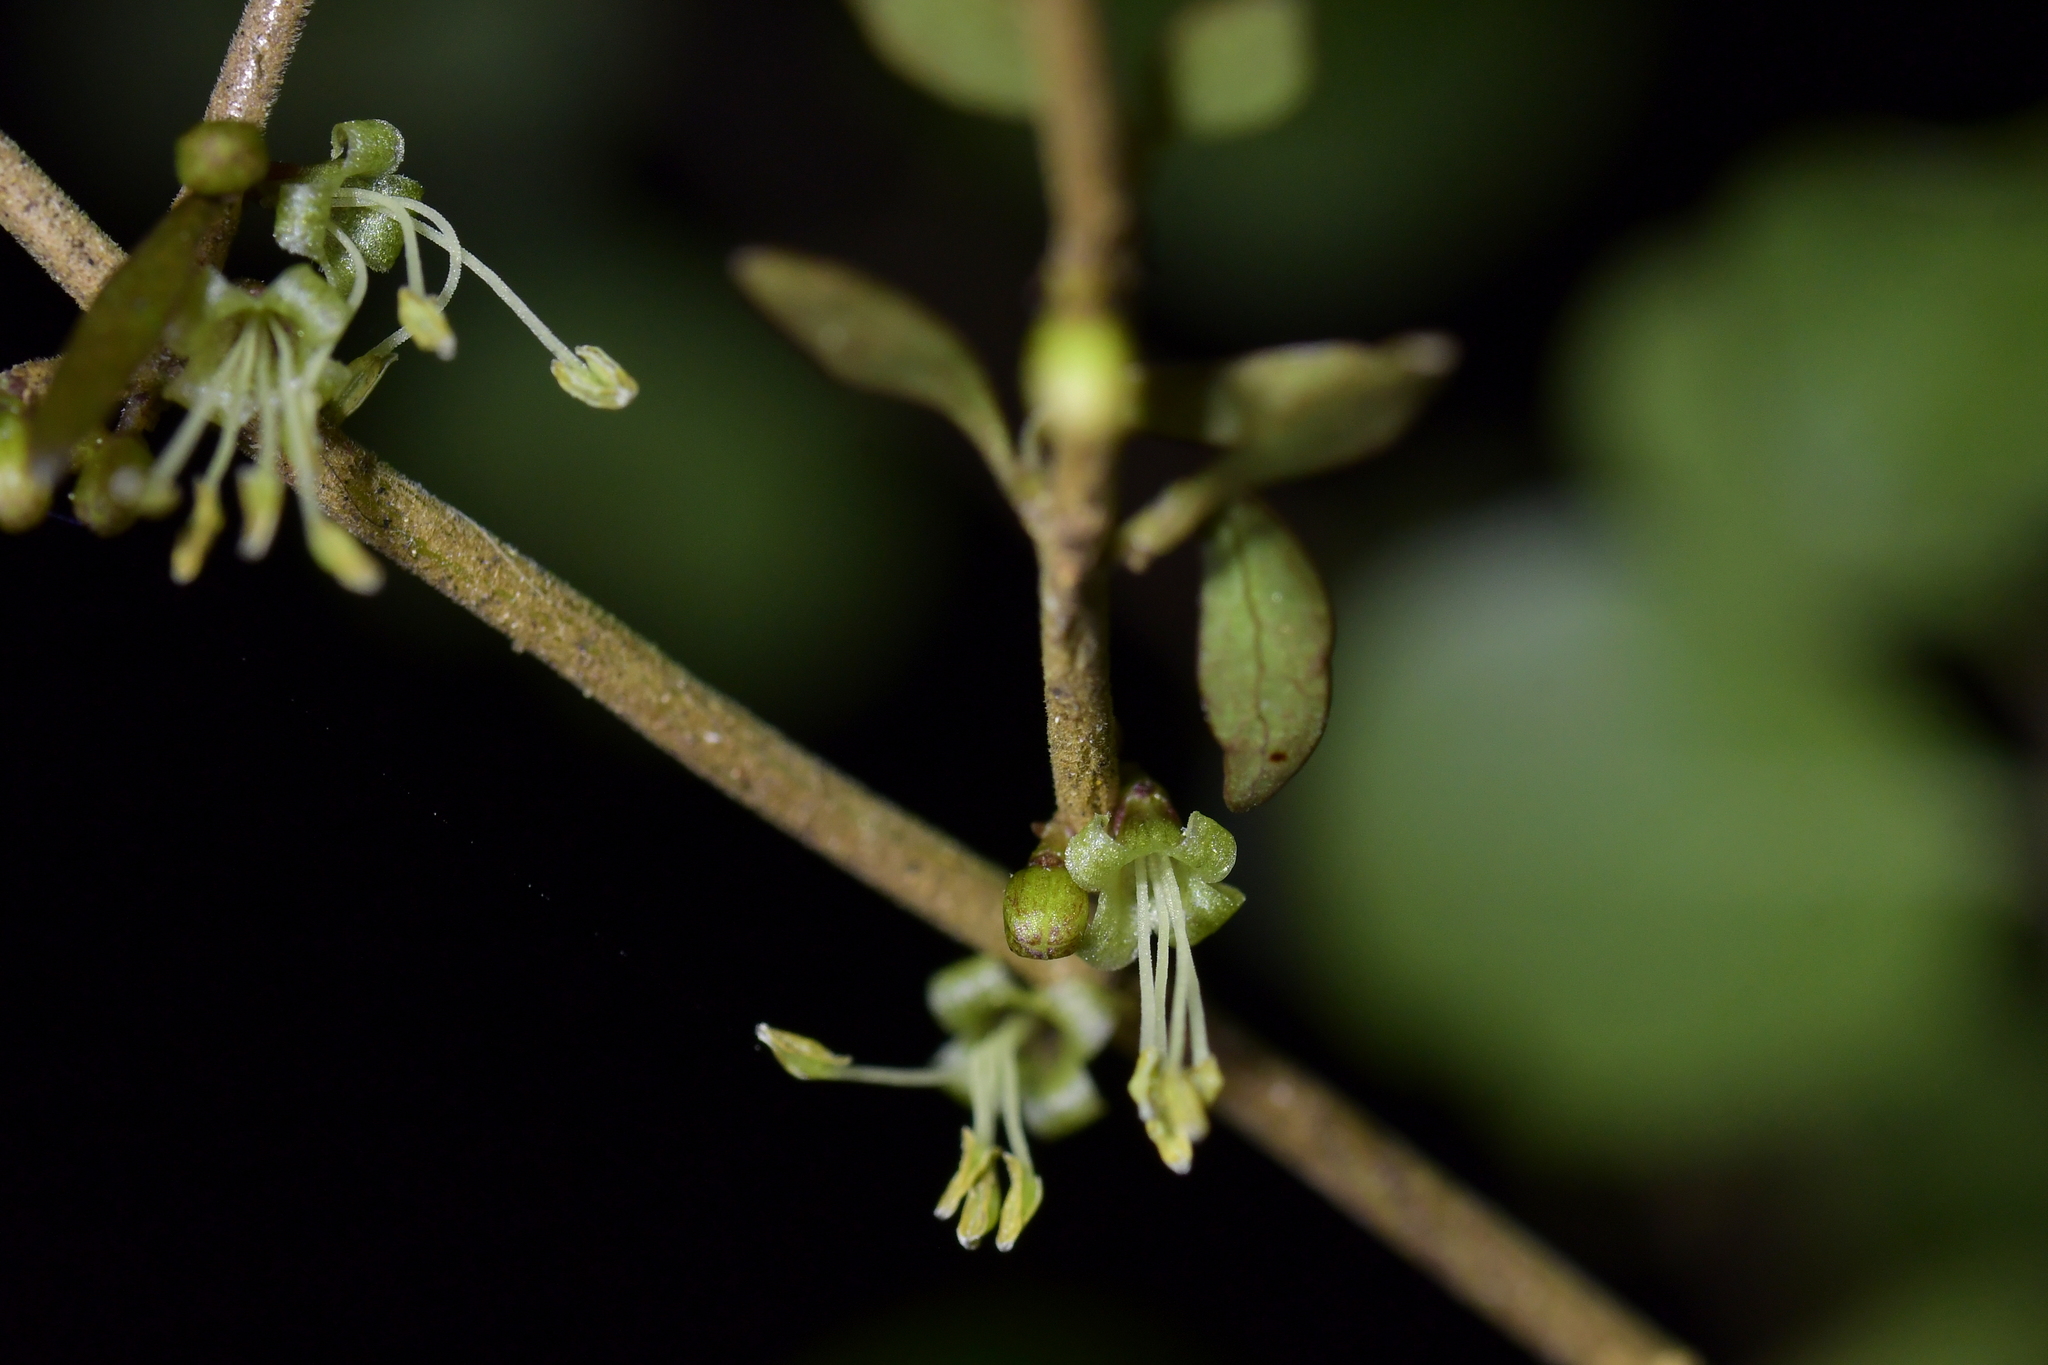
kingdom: Plantae
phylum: Tracheophyta
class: Magnoliopsida
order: Gentianales
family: Rubiaceae
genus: Coprosma
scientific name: Coprosma rhamnoides
